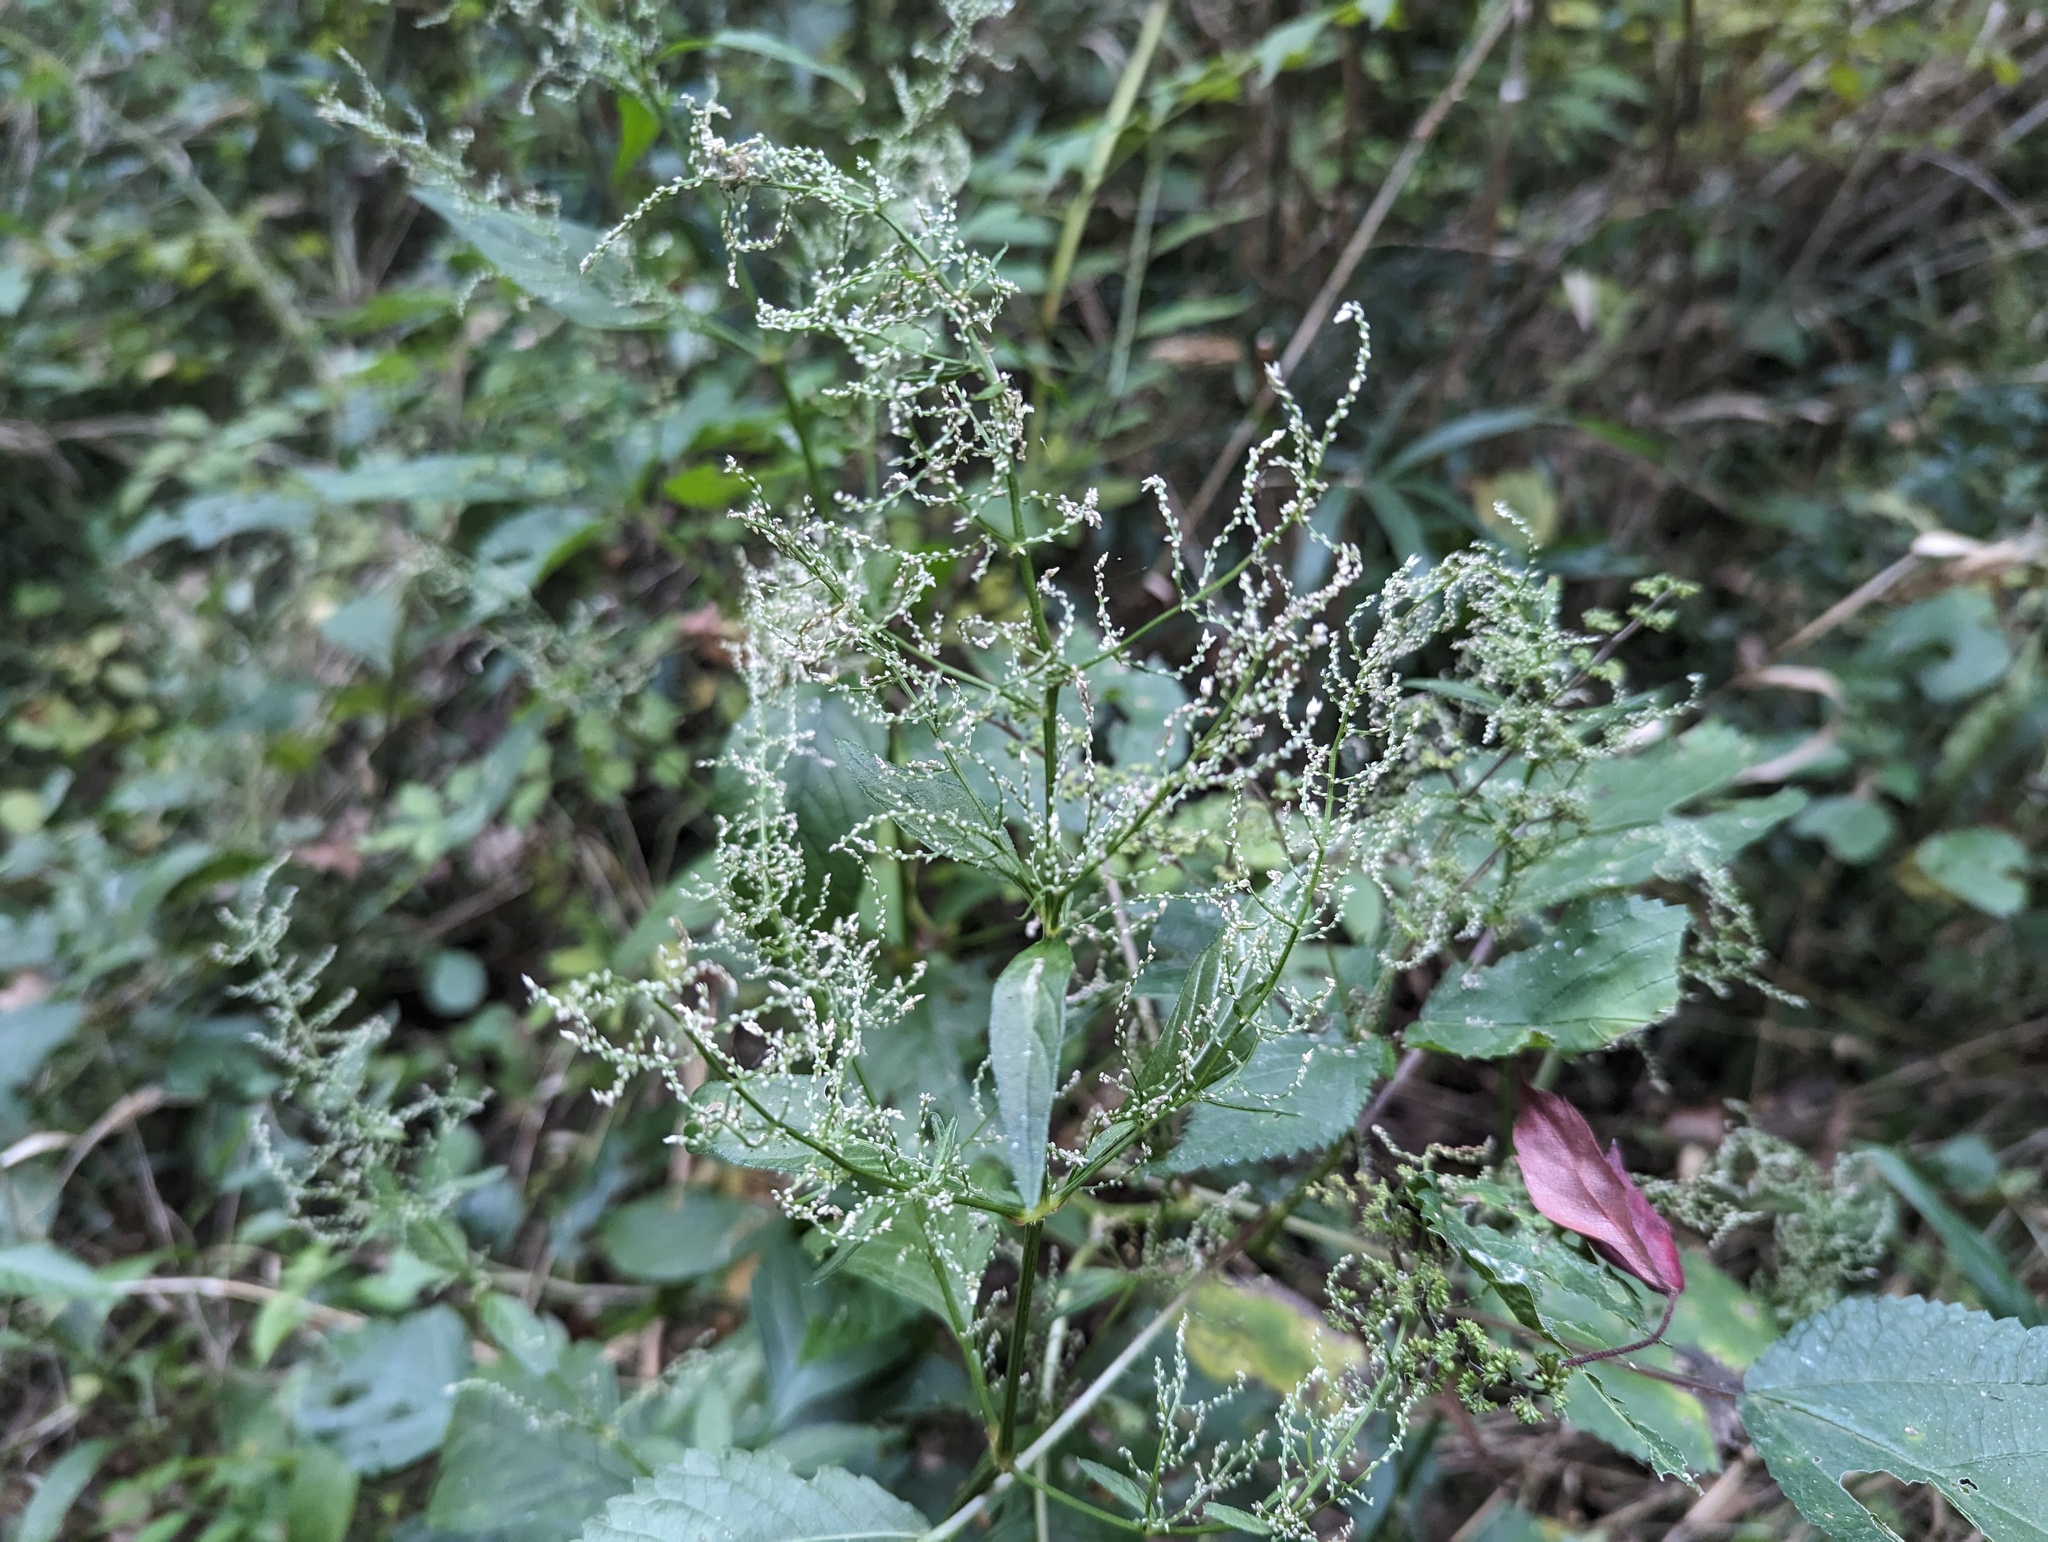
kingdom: Plantae
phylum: Tracheophyta
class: Magnoliopsida
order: Caryophyllales
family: Amaranthaceae
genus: Iresine
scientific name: Iresine rhizomatosa
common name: Juda's-bush
